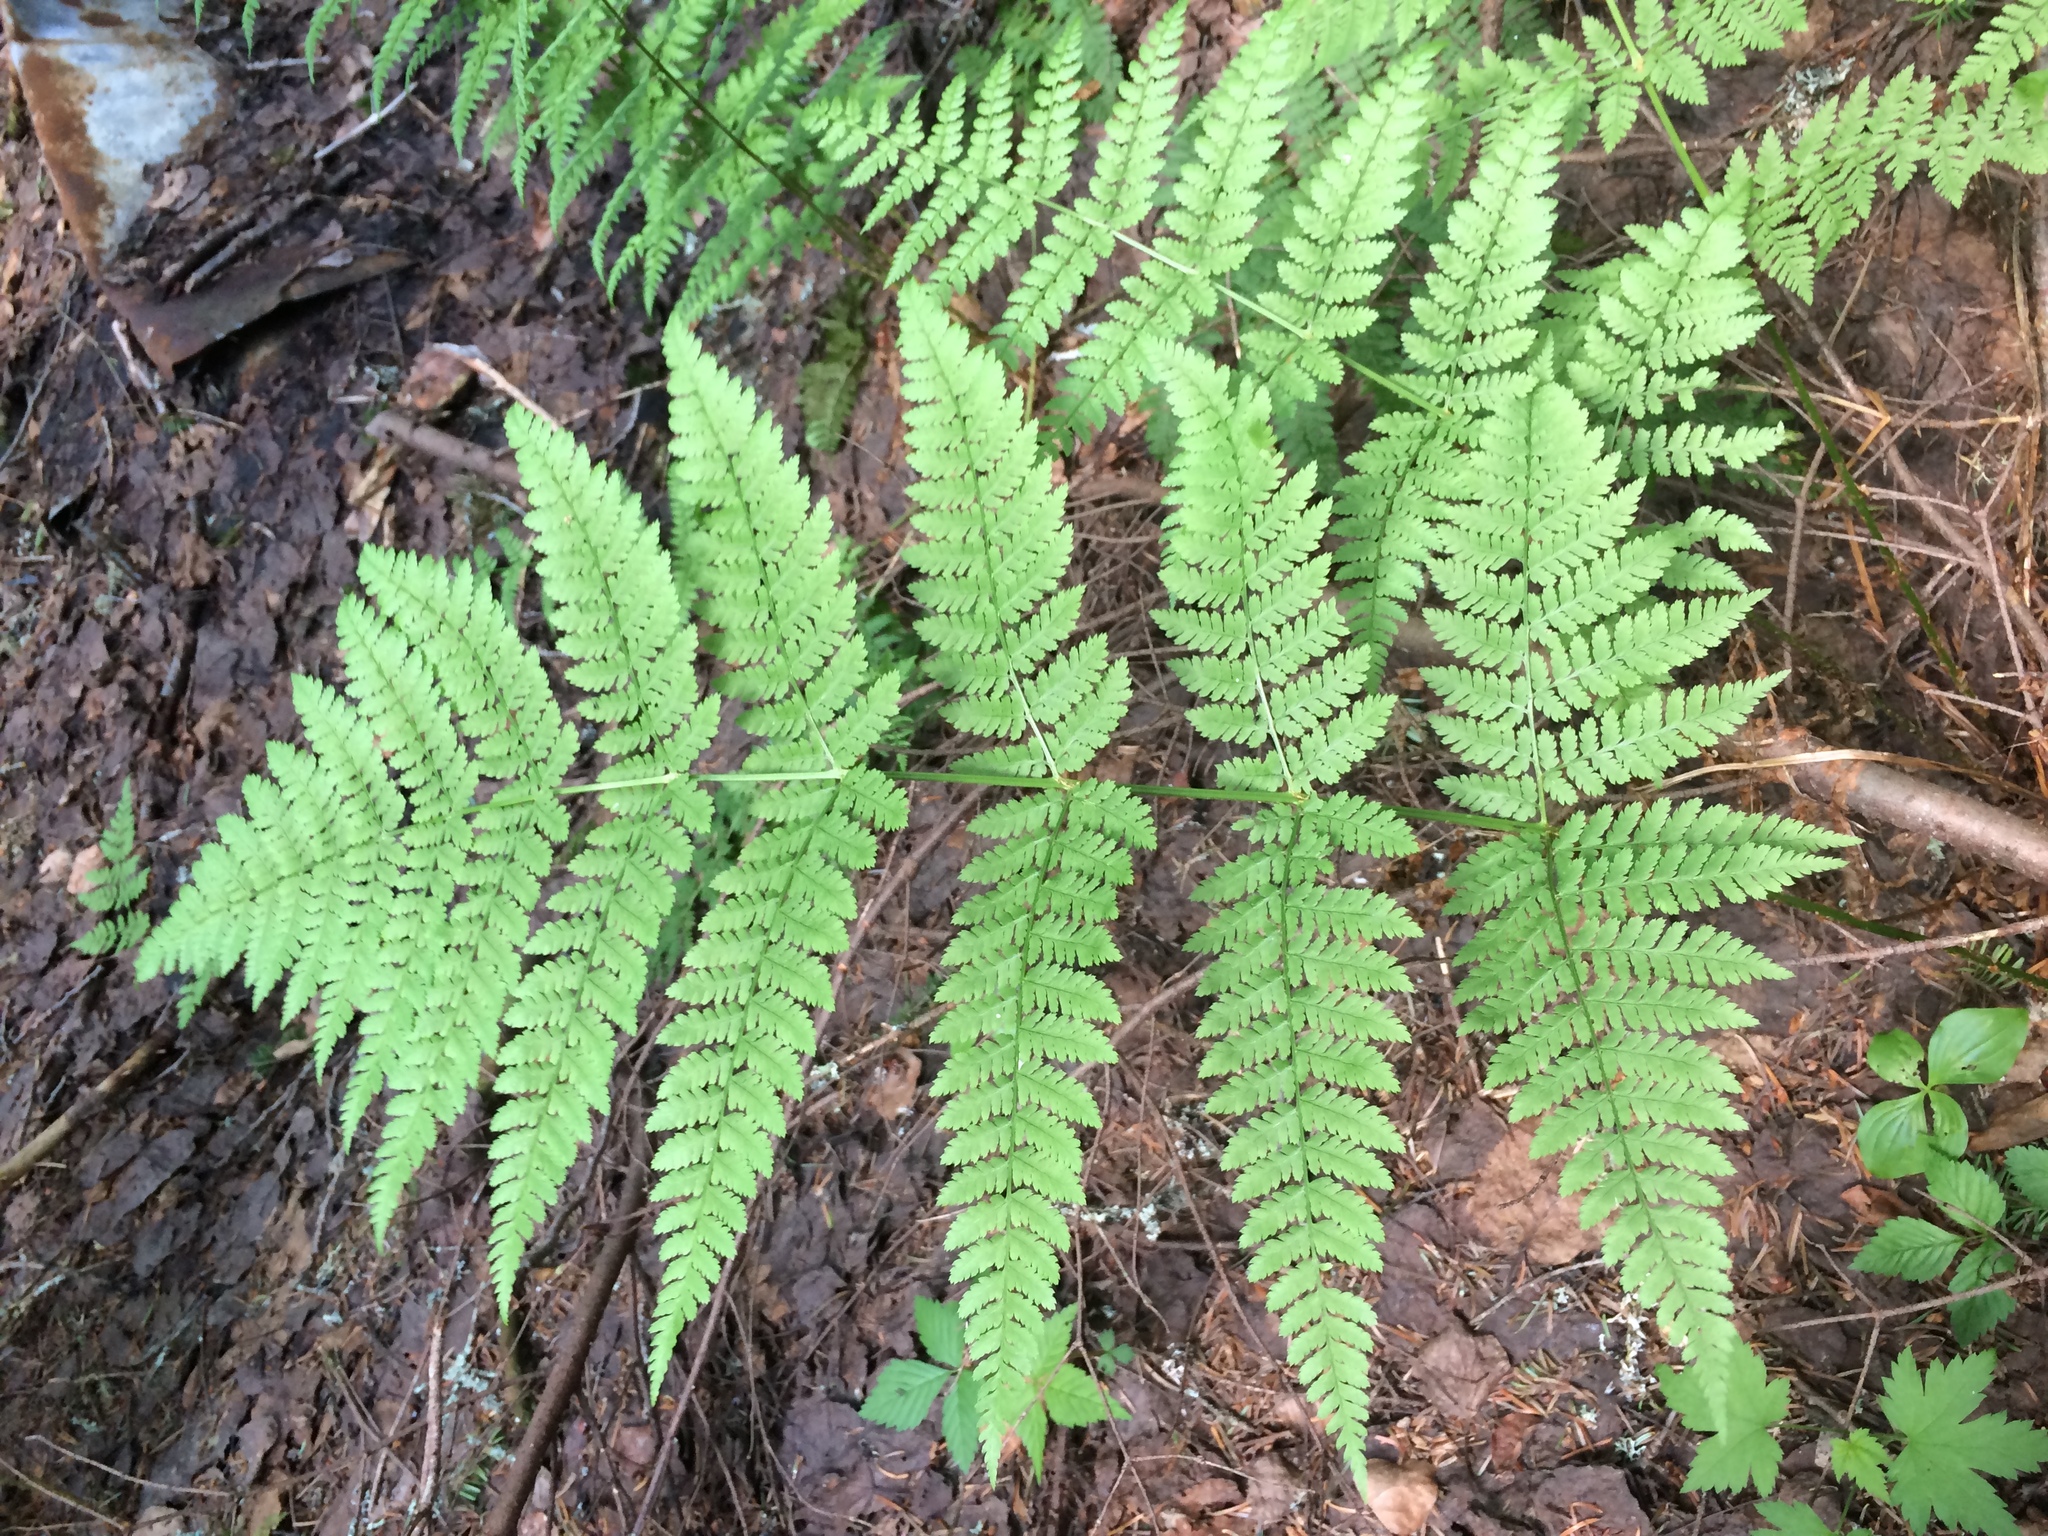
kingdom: Plantae
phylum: Tracheophyta
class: Polypodiopsida
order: Polypodiales
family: Dryopteridaceae
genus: Dryopteris
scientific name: Dryopteris campyloptera
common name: Mountain wood fern
